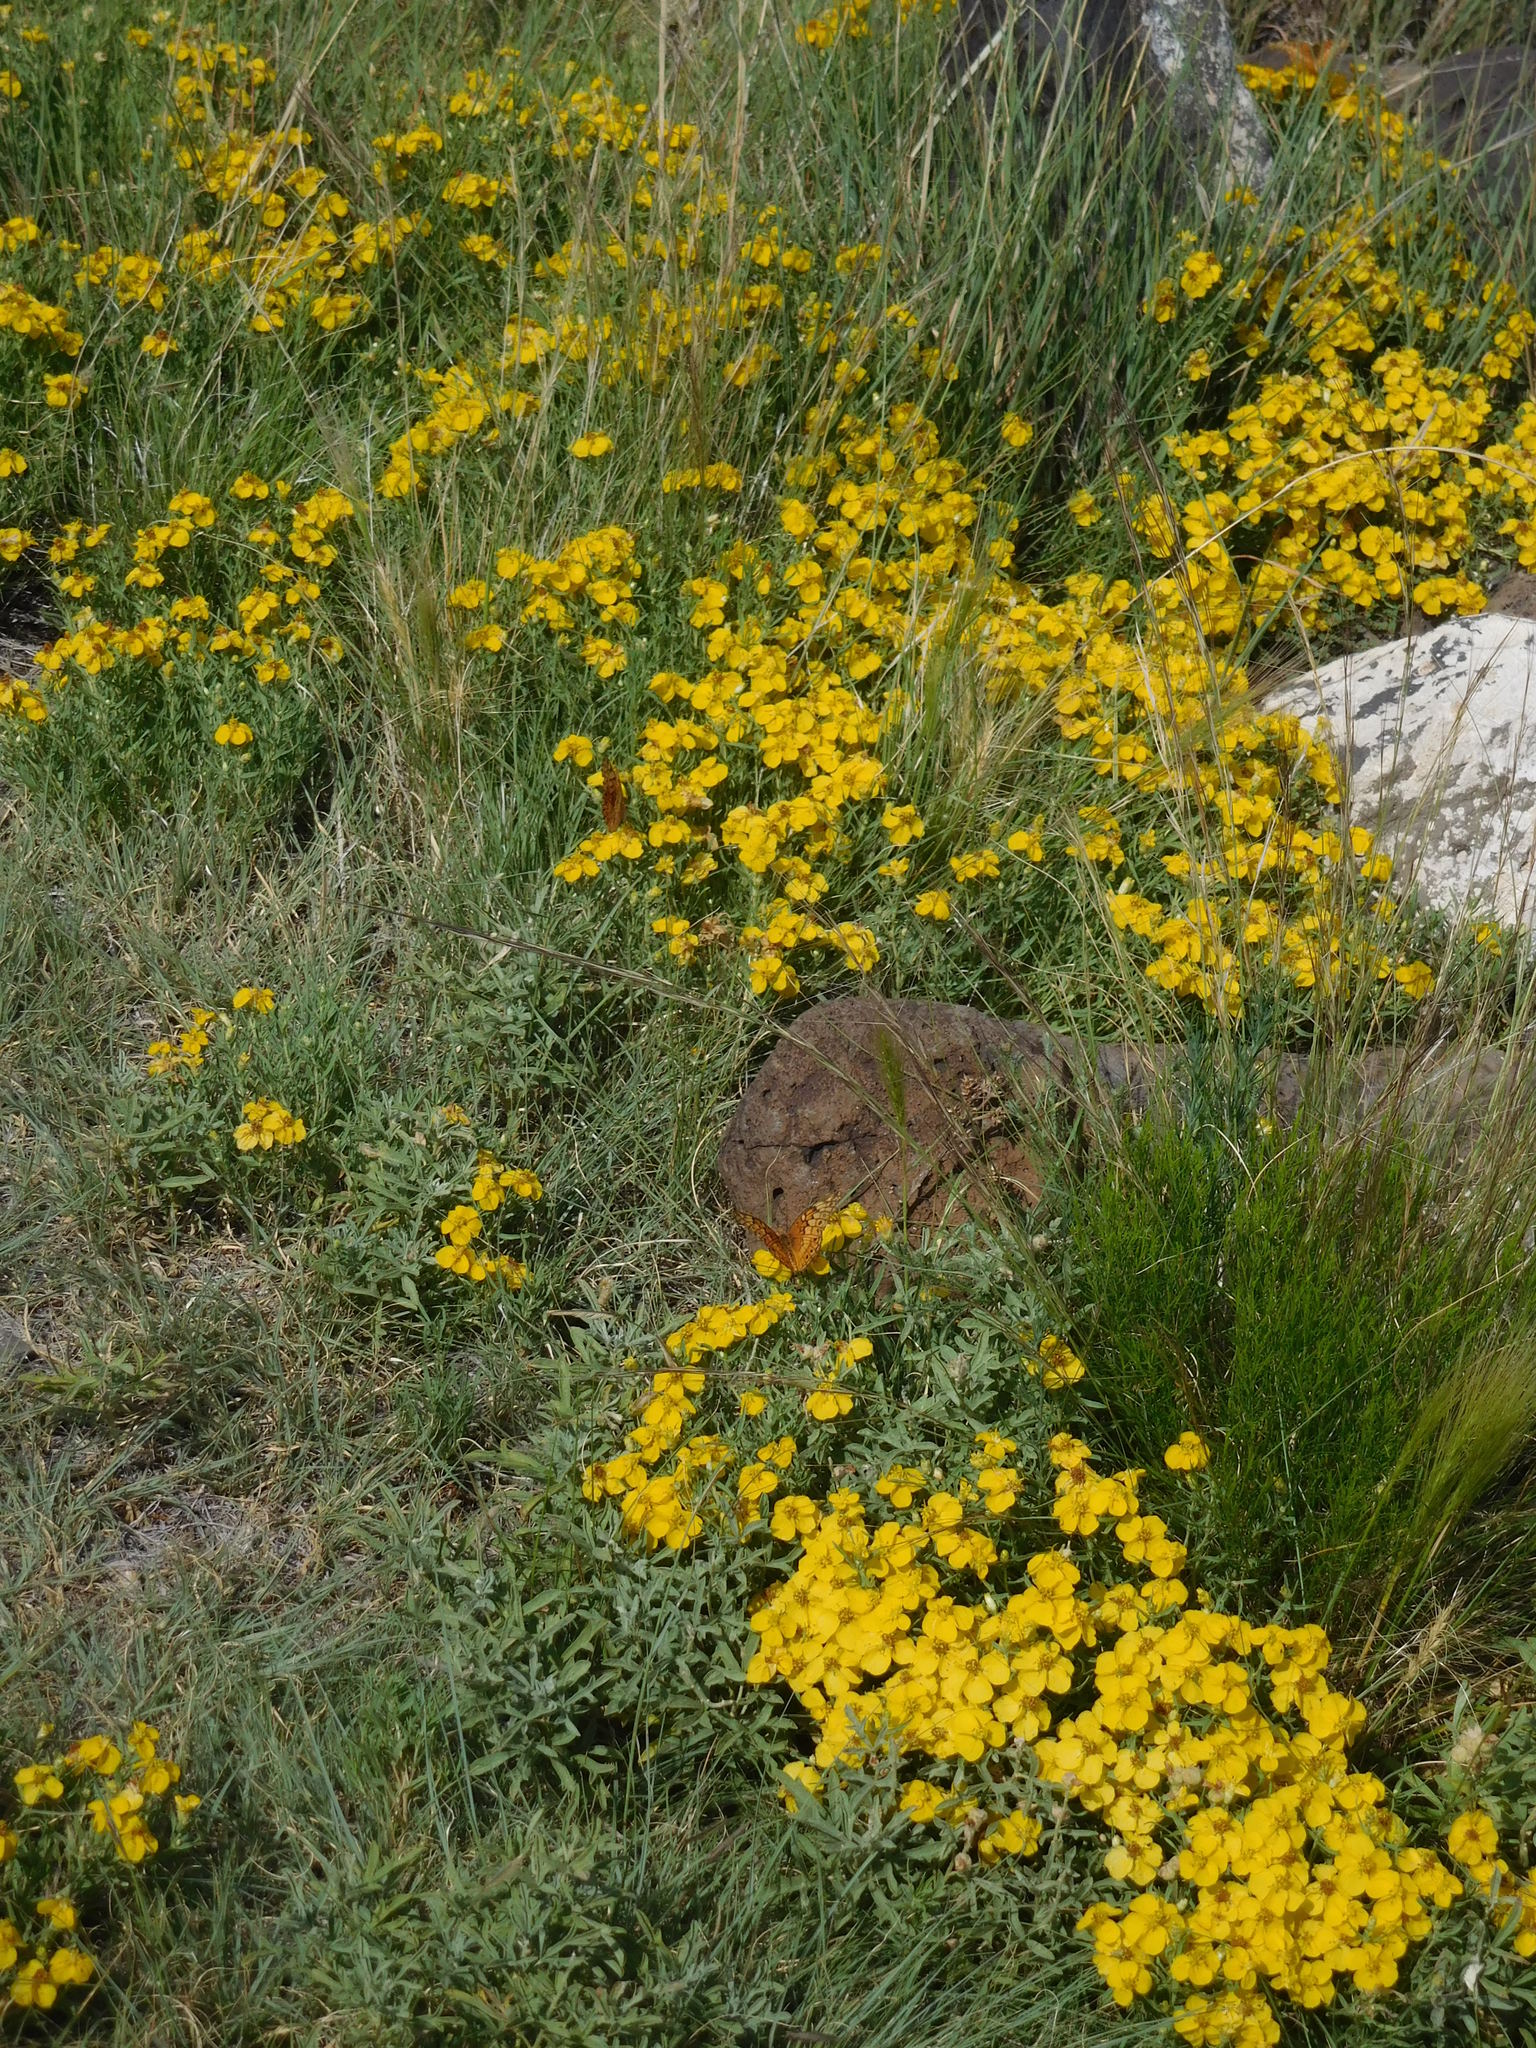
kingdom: Plantae
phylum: Tracheophyta
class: Magnoliopsida
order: Asterales
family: Asteraceae
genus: Zinnia
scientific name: Zinnia grandiflora
